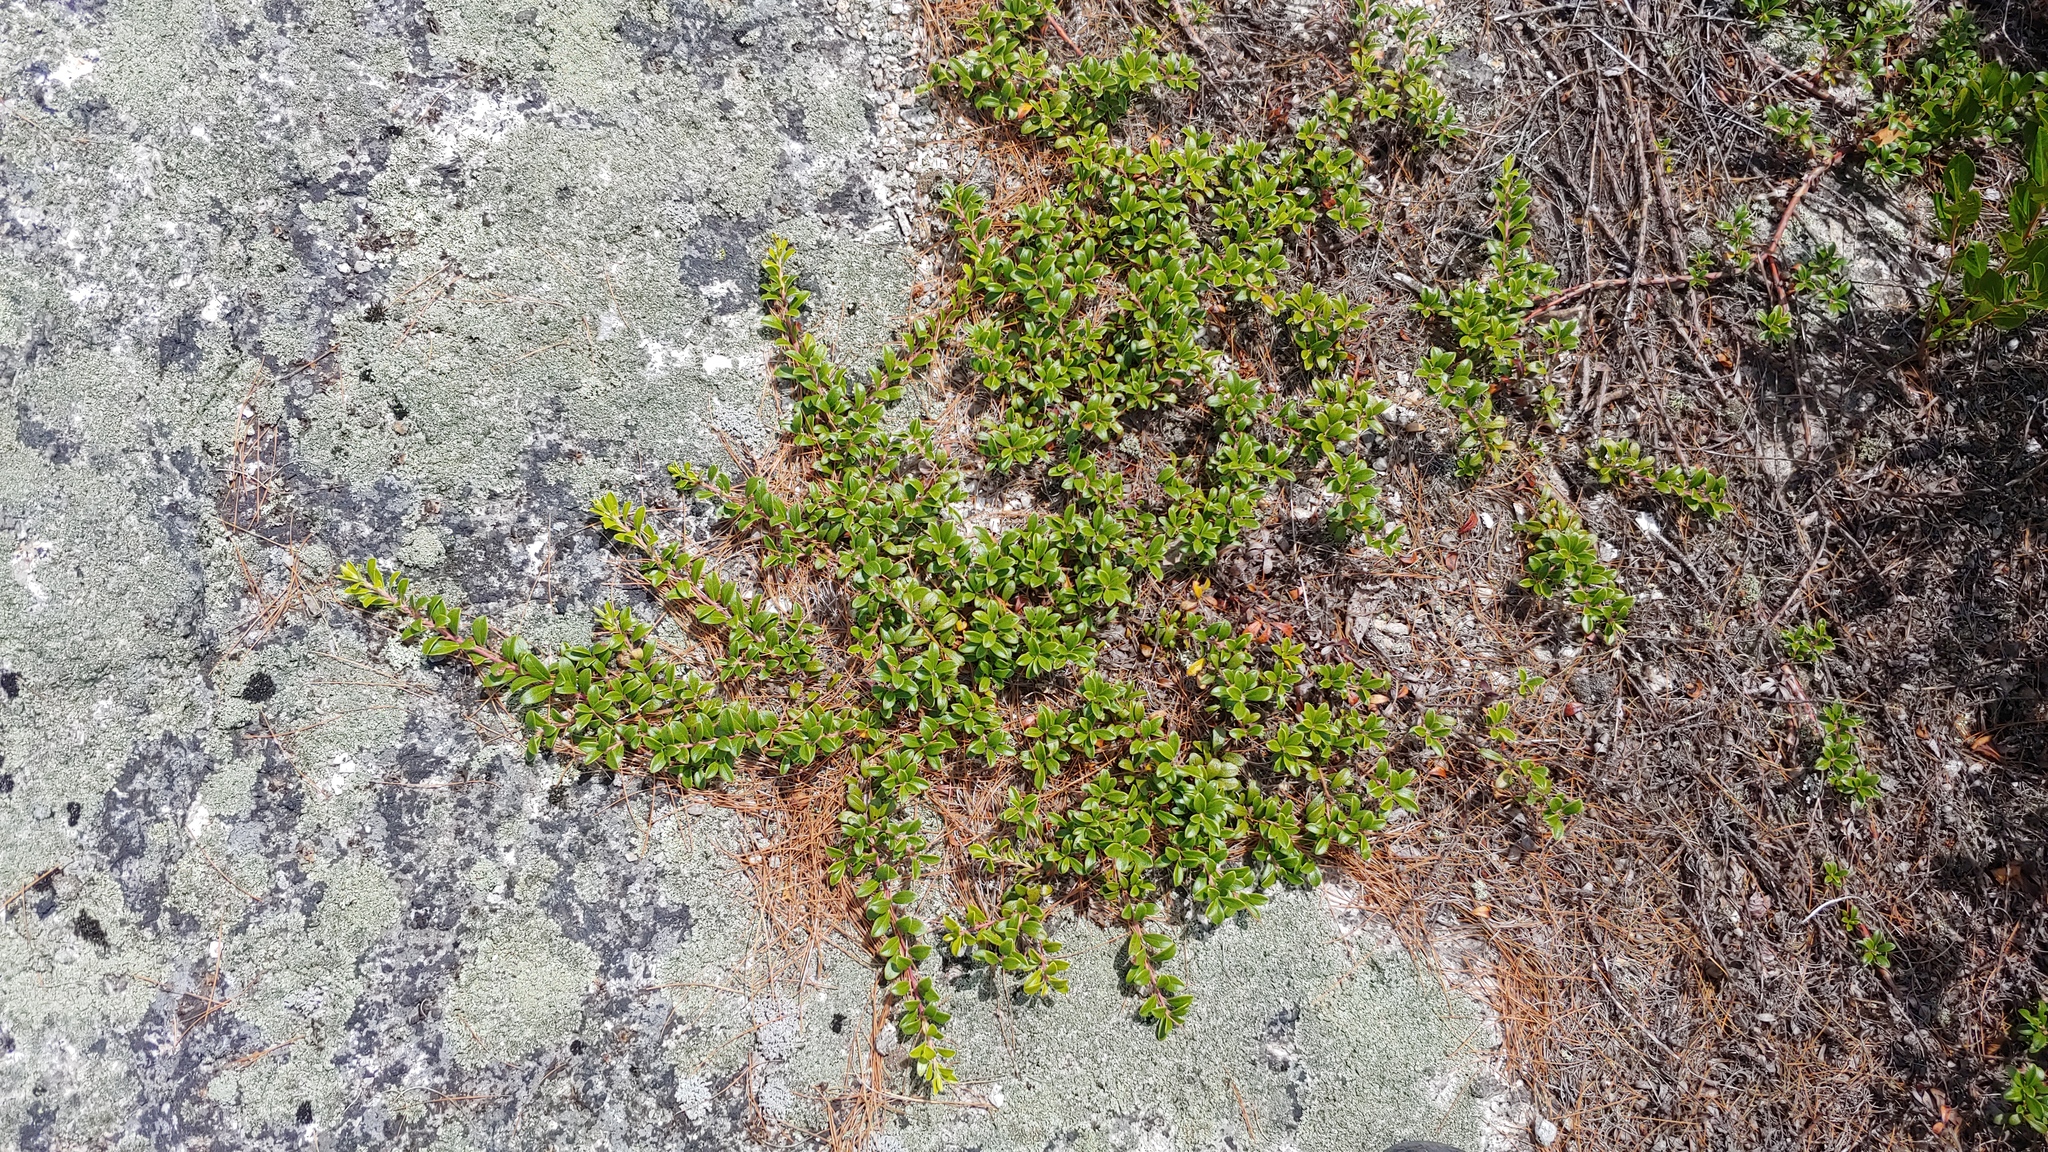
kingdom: Plantae
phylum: Tracheophyta
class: Magnoliopsida
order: Ericales
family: Ericaceae
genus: Arctostaphylos
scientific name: Arctostaphylos uva-ursi
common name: Bearberry
